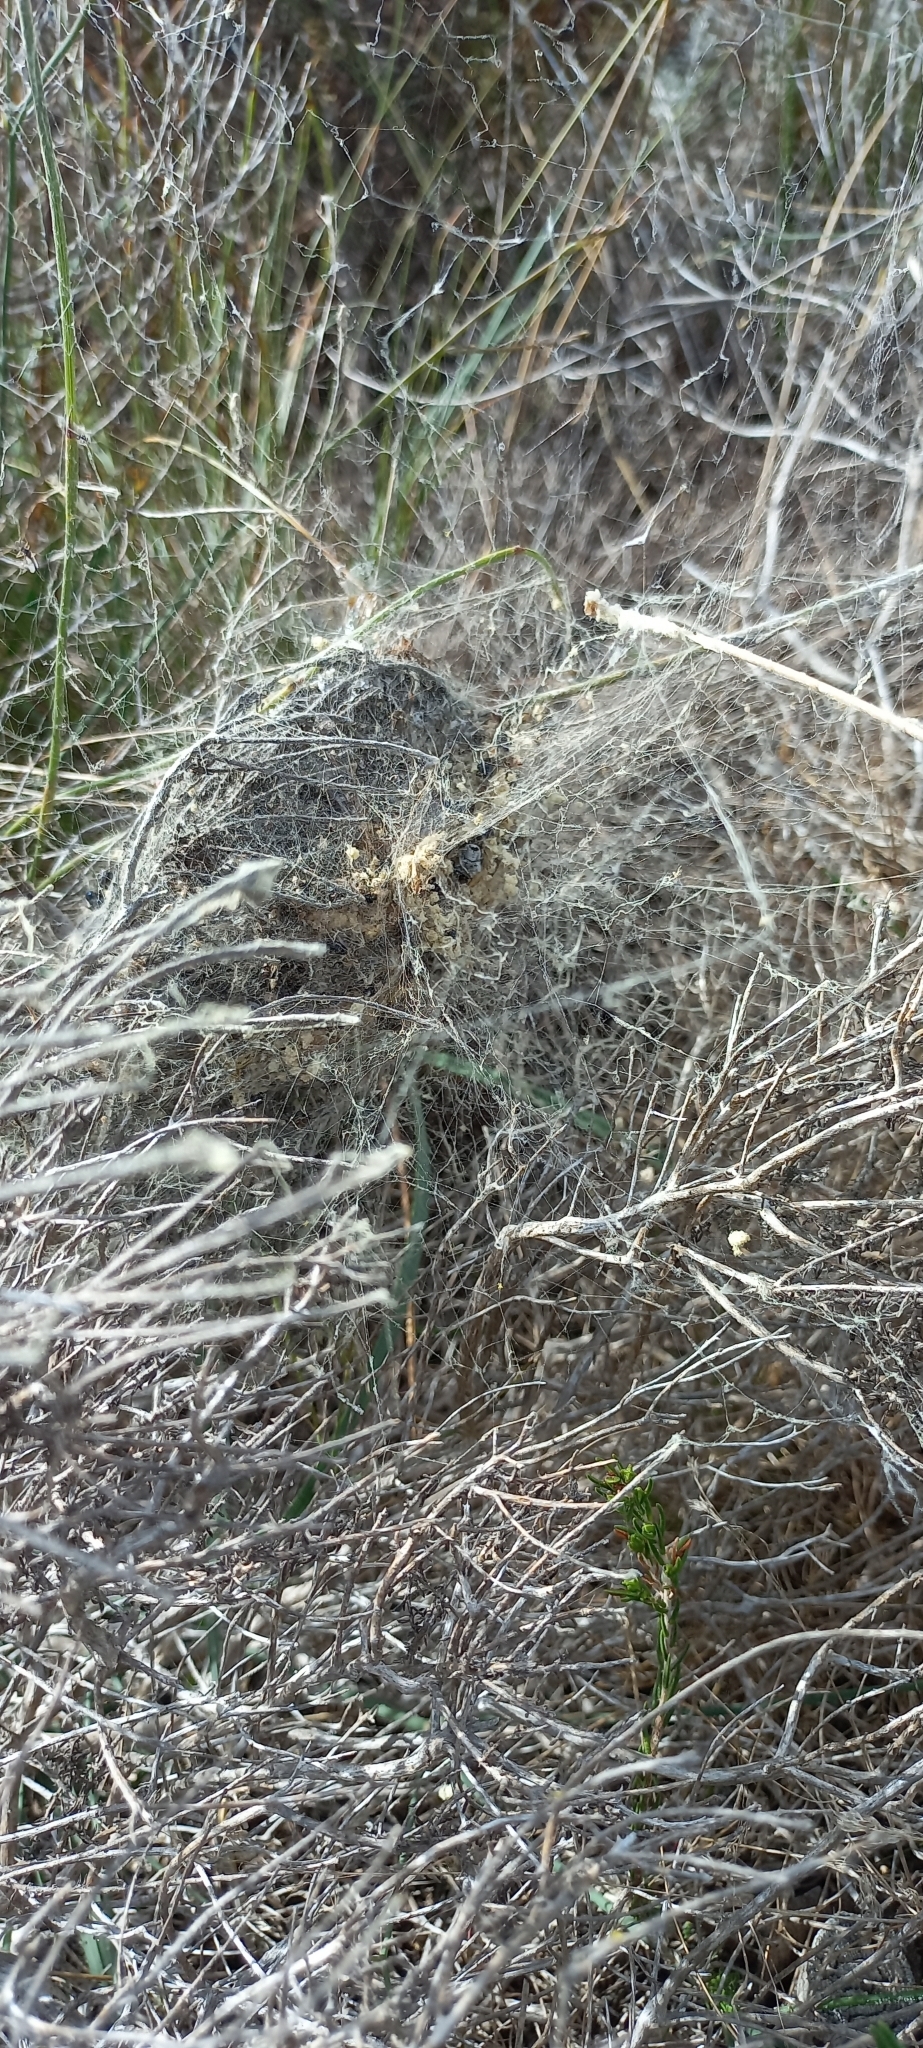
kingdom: Animalia
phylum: Arthropoda
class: Arachnida
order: Araneae
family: Eresidae
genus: Stegodyphus
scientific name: Stegodyphus dumicola
